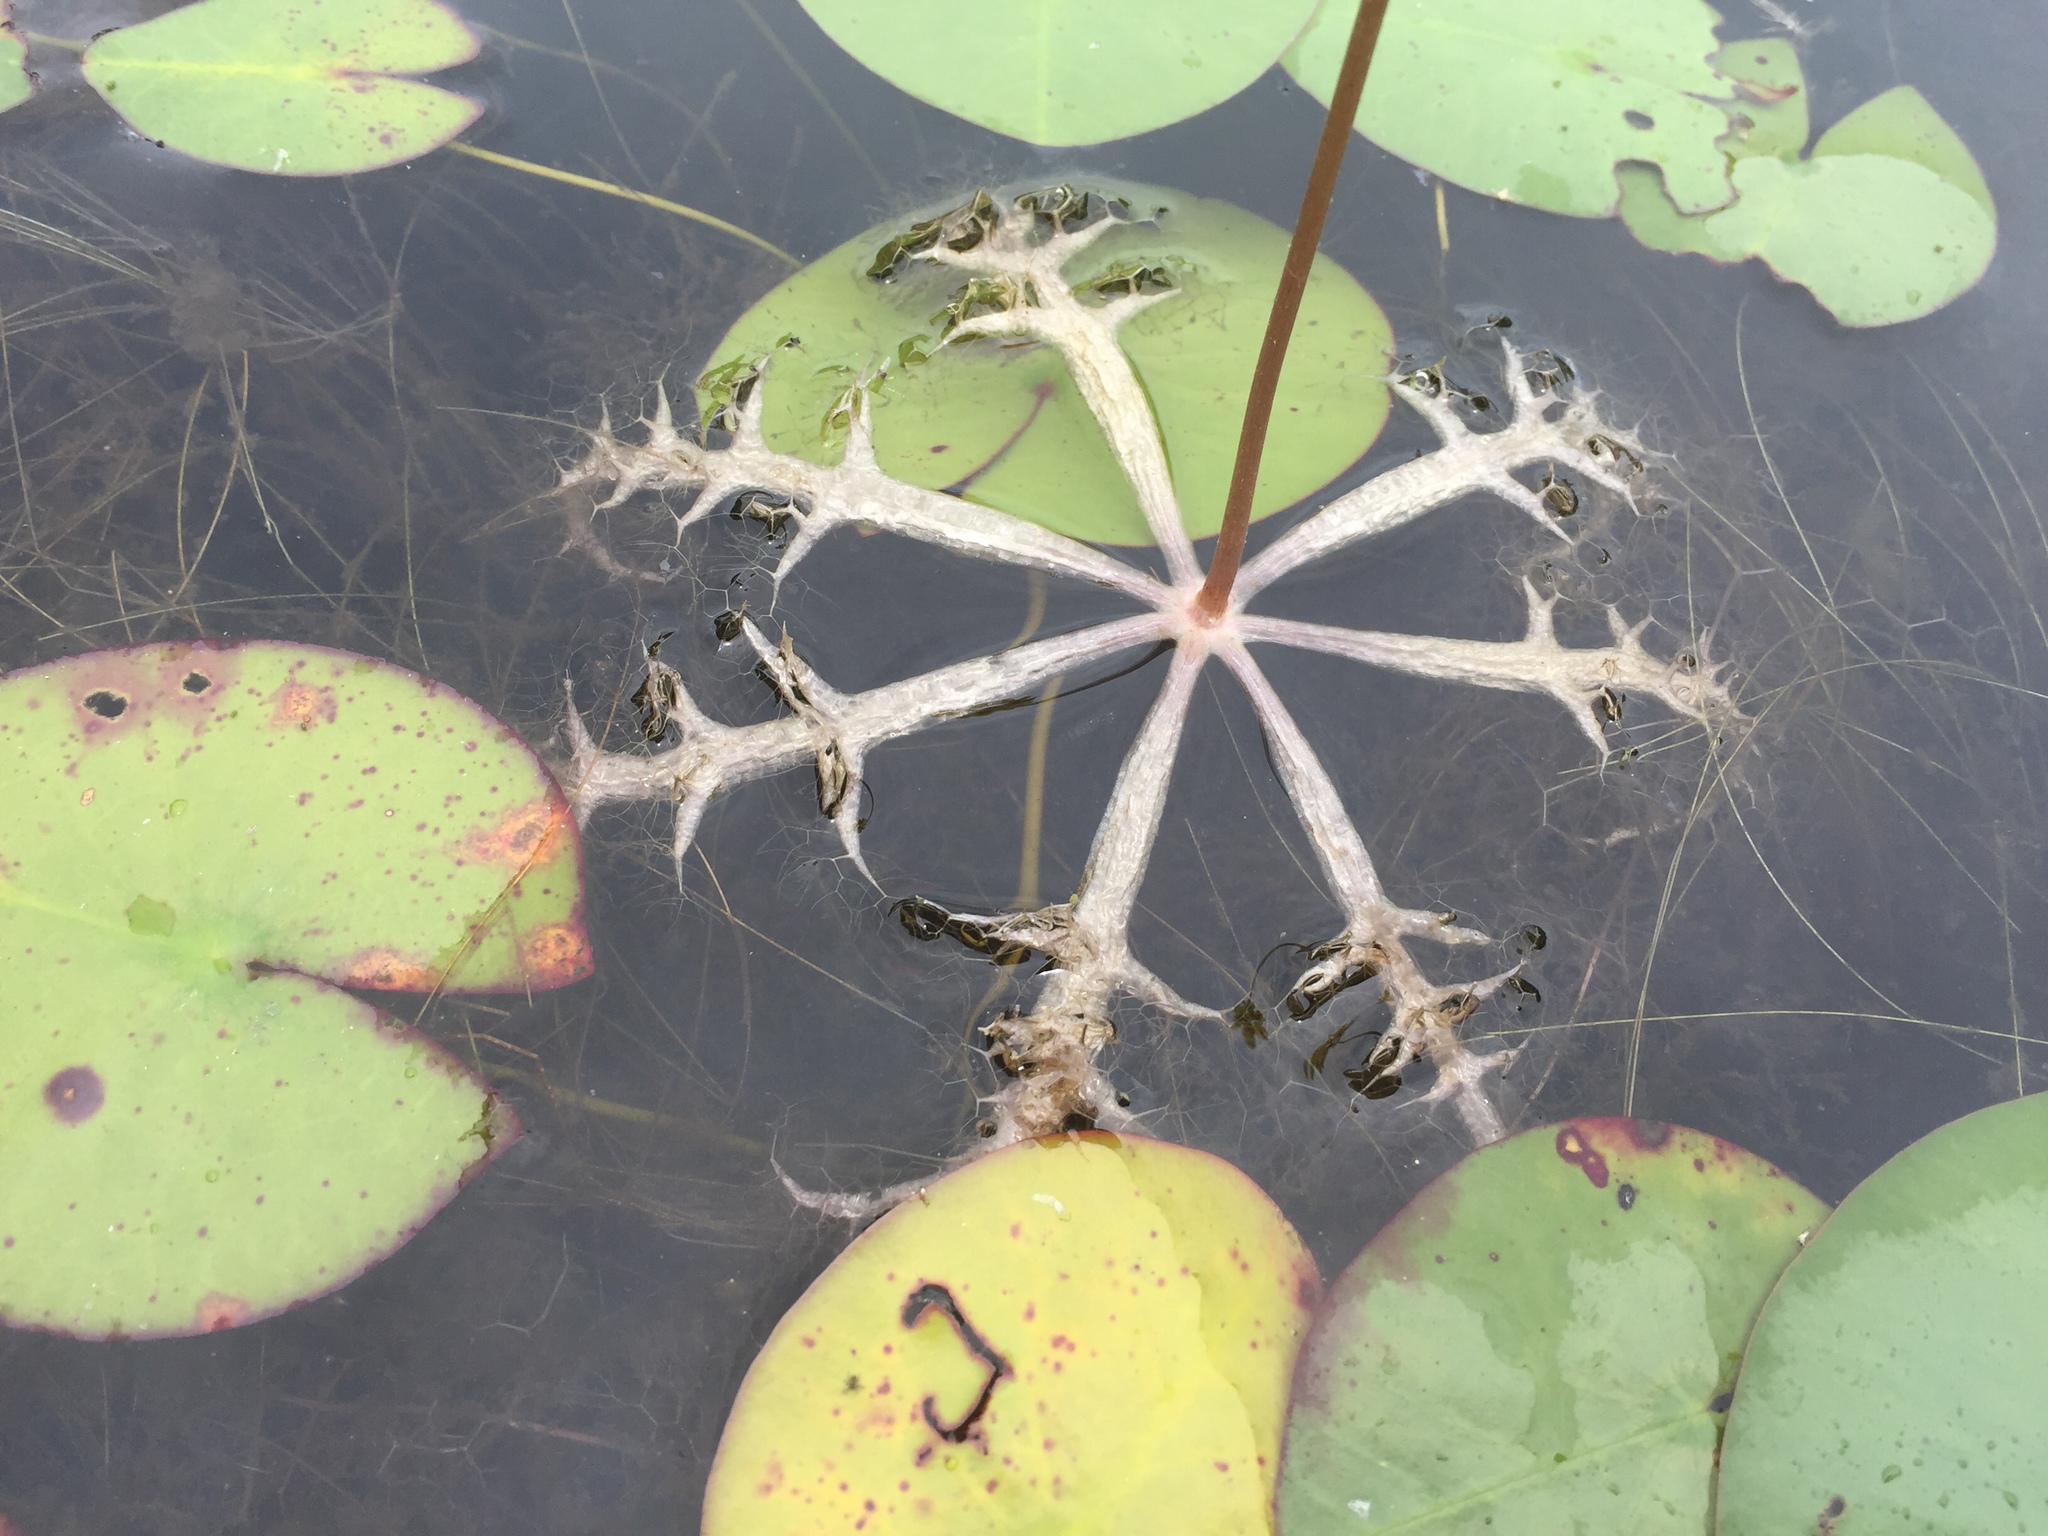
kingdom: Plantae
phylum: Tracheophyta
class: Magnoliopsida
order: Lamiales
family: Lentibulariaceae
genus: Utricularia
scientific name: Utricularia inflata
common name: Floating bladderwort
